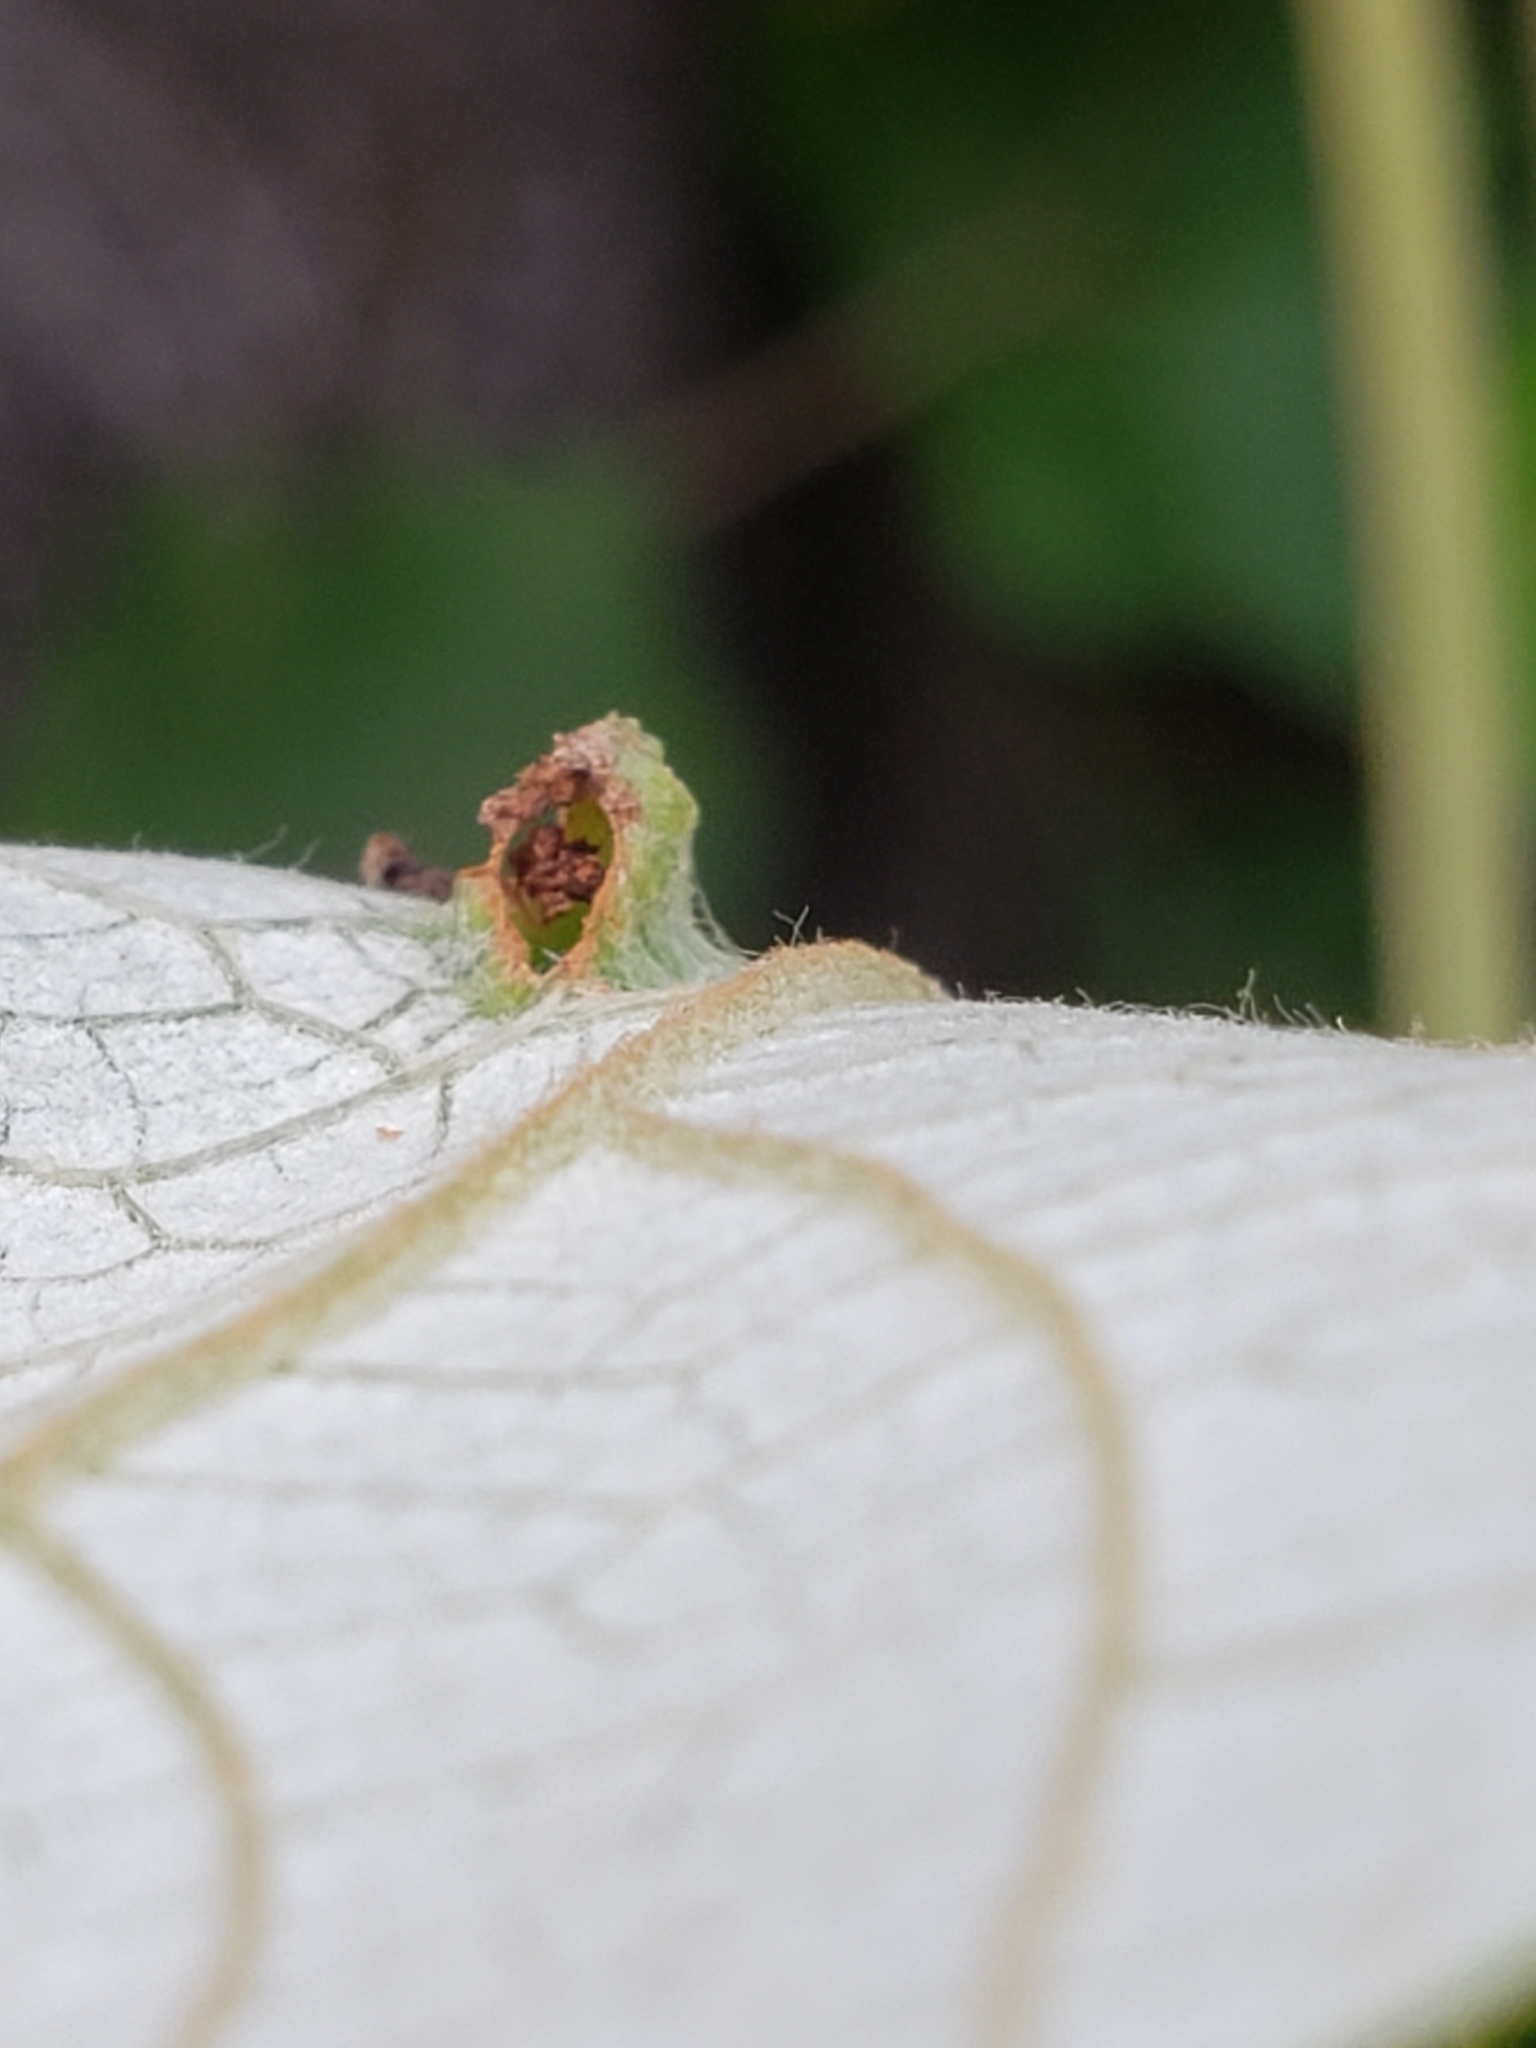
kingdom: Animalia
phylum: Arthropoda
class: Insecta
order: Hemiptera
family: Phylloxeridae
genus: Daktulosphaira
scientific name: Daktulosphaira vitifoliae
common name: Grape phylloxera
